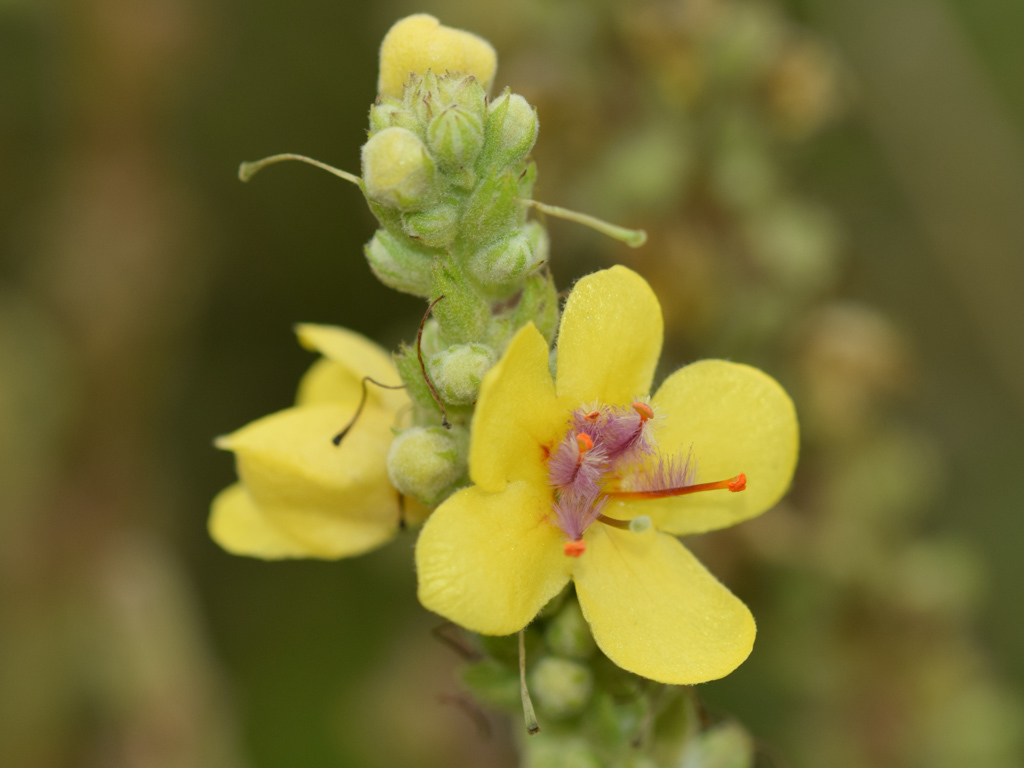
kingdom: Plantae
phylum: Tracheophyta
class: Magnoliopsida
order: Lamiales
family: Scrophulariaceae
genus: Verbascum
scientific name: Verbascum nigrum
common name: Dark mullein
